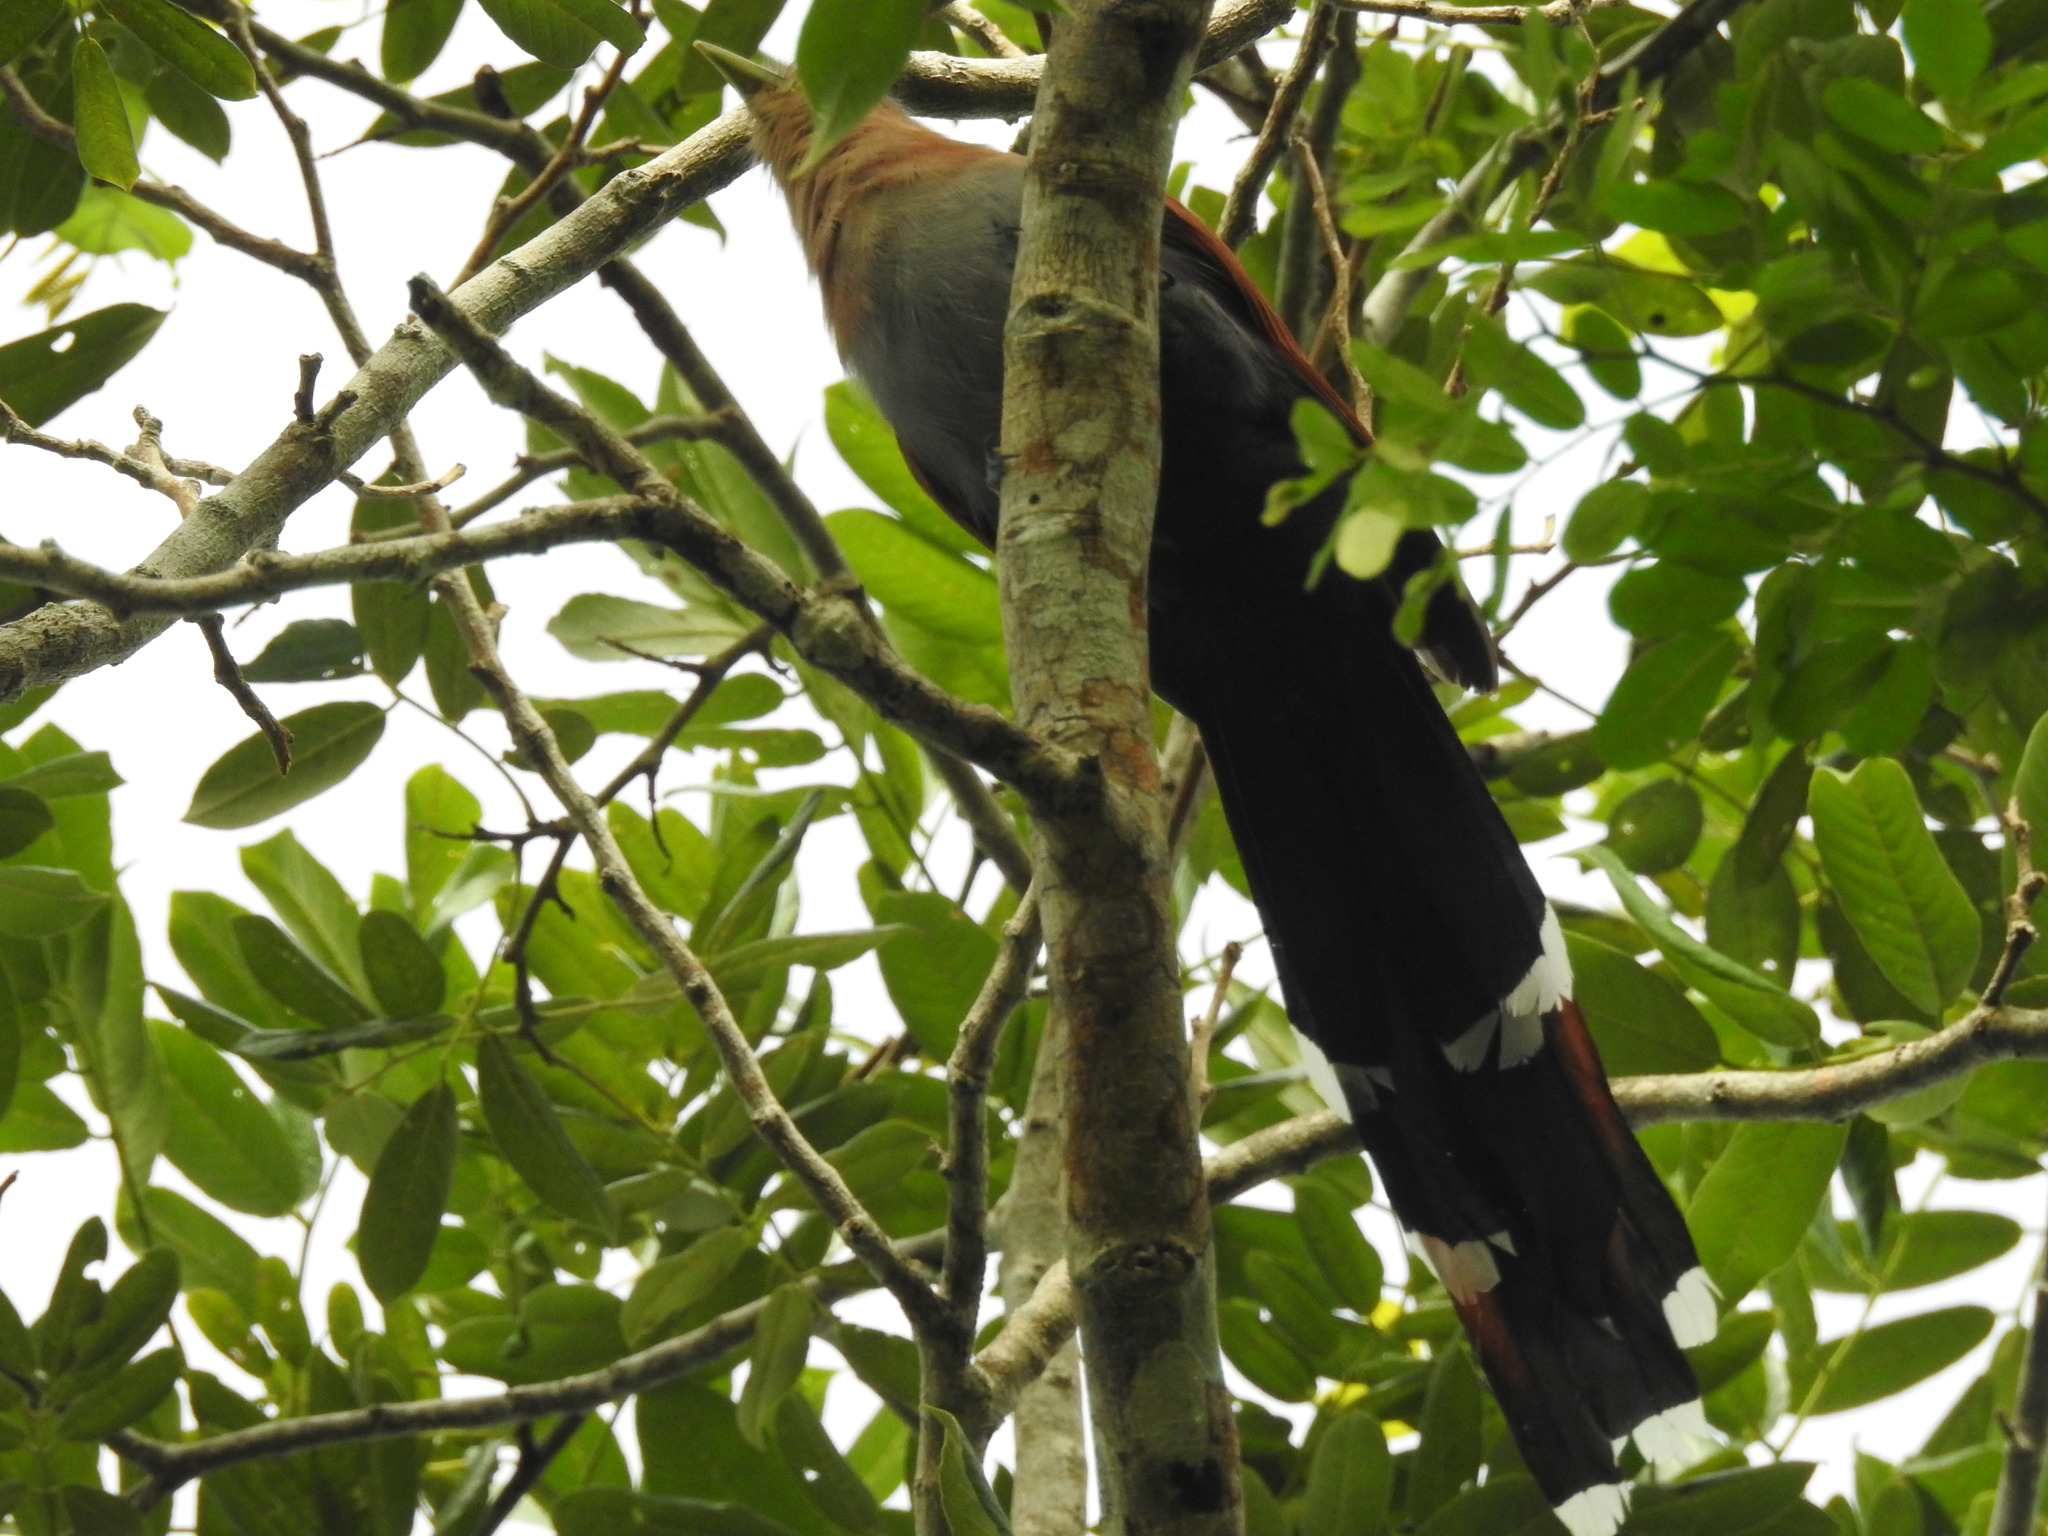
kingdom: Animalia
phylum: Chordata
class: Aves
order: Cuculiformes
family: Cuculidae
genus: Piaya
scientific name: Piaya cayana
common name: Squirrel cuckoo
